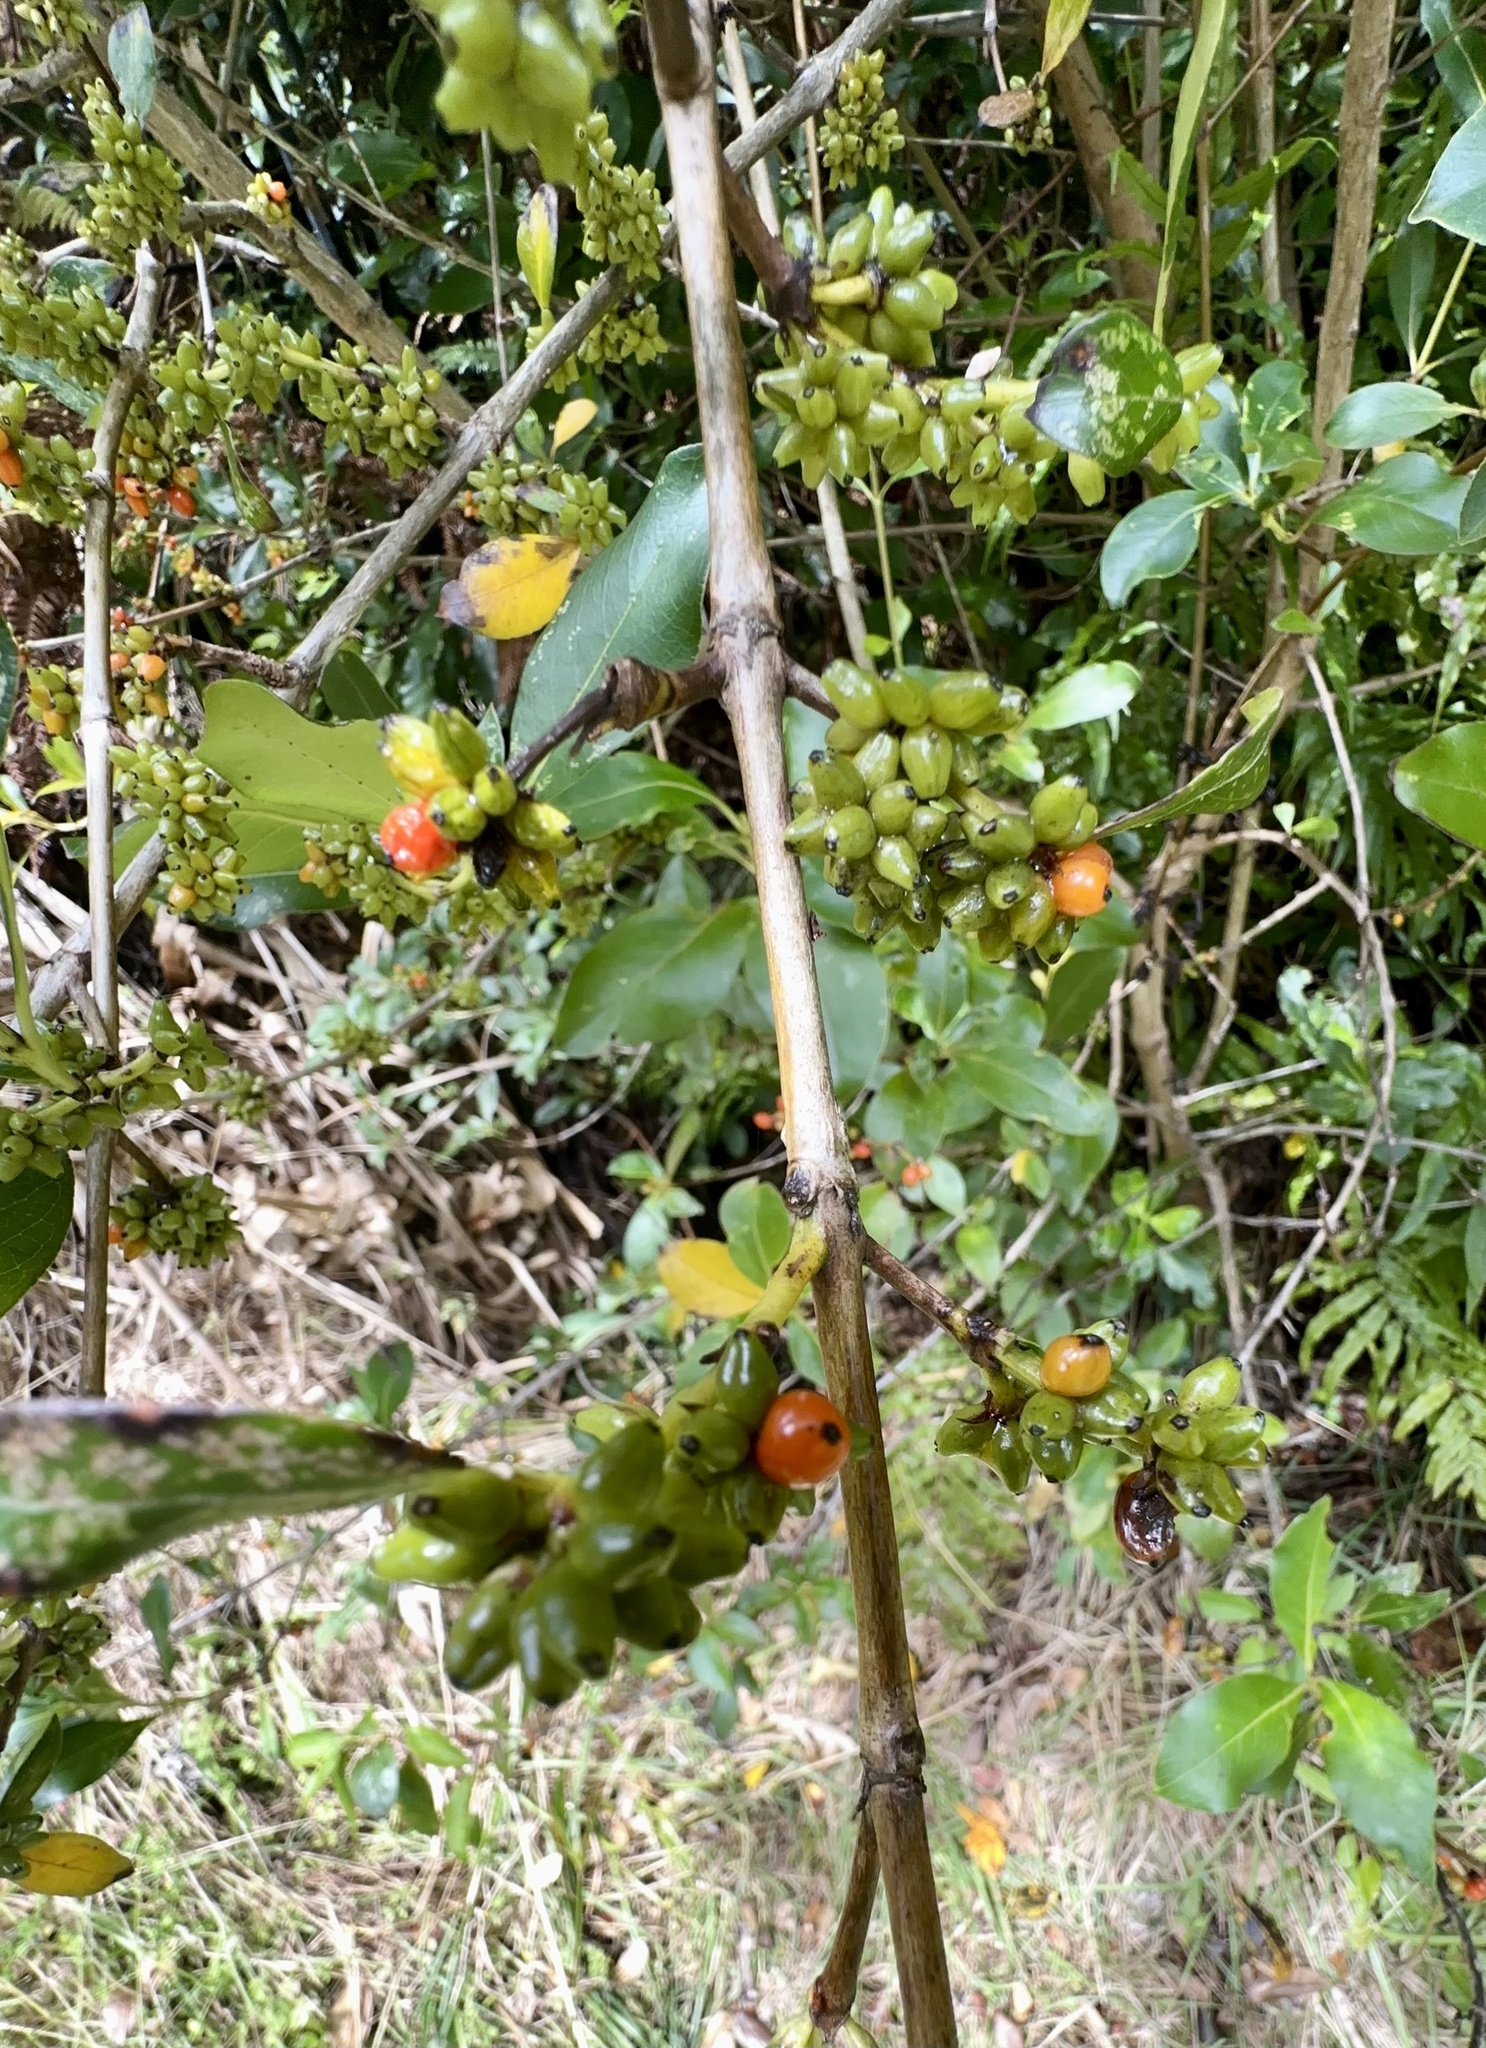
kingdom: Plantae
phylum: Tracheophyta
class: Magnoliopsida
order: Gentianales
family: Rubiaceae
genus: Coprosma
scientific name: Coprosma robusta
